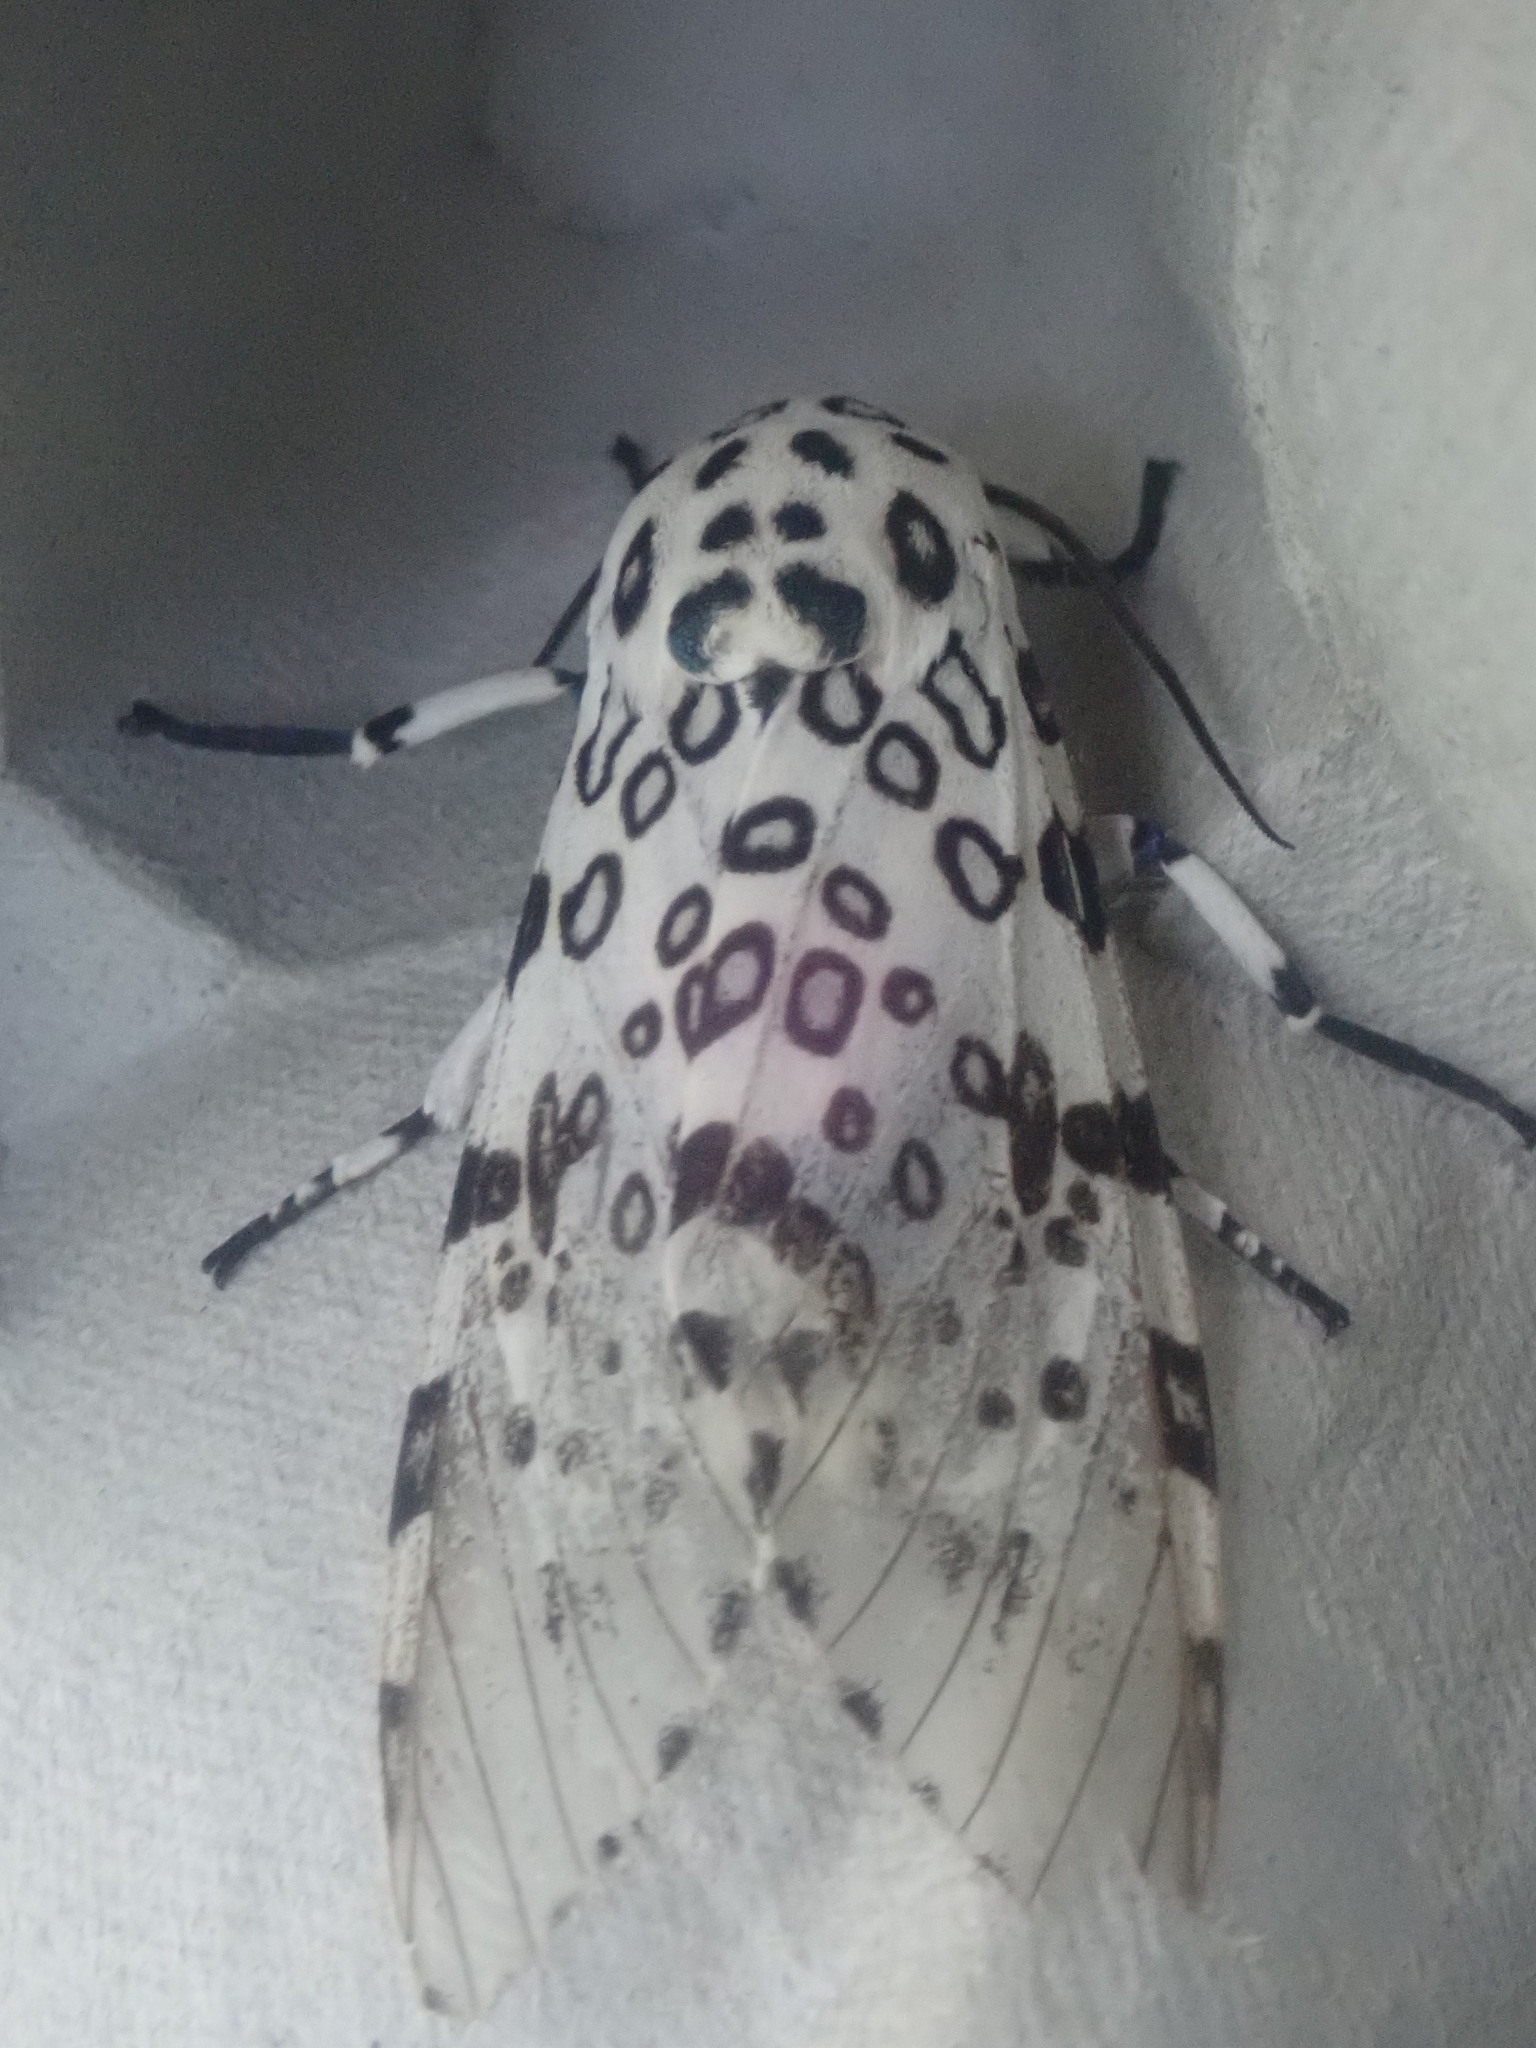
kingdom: Animalia
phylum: Arthropoda
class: Insecta
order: Lepidoptera
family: Erebidae
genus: Hypercompe
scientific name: Hypercompe scribonia
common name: Giant leopard moth
